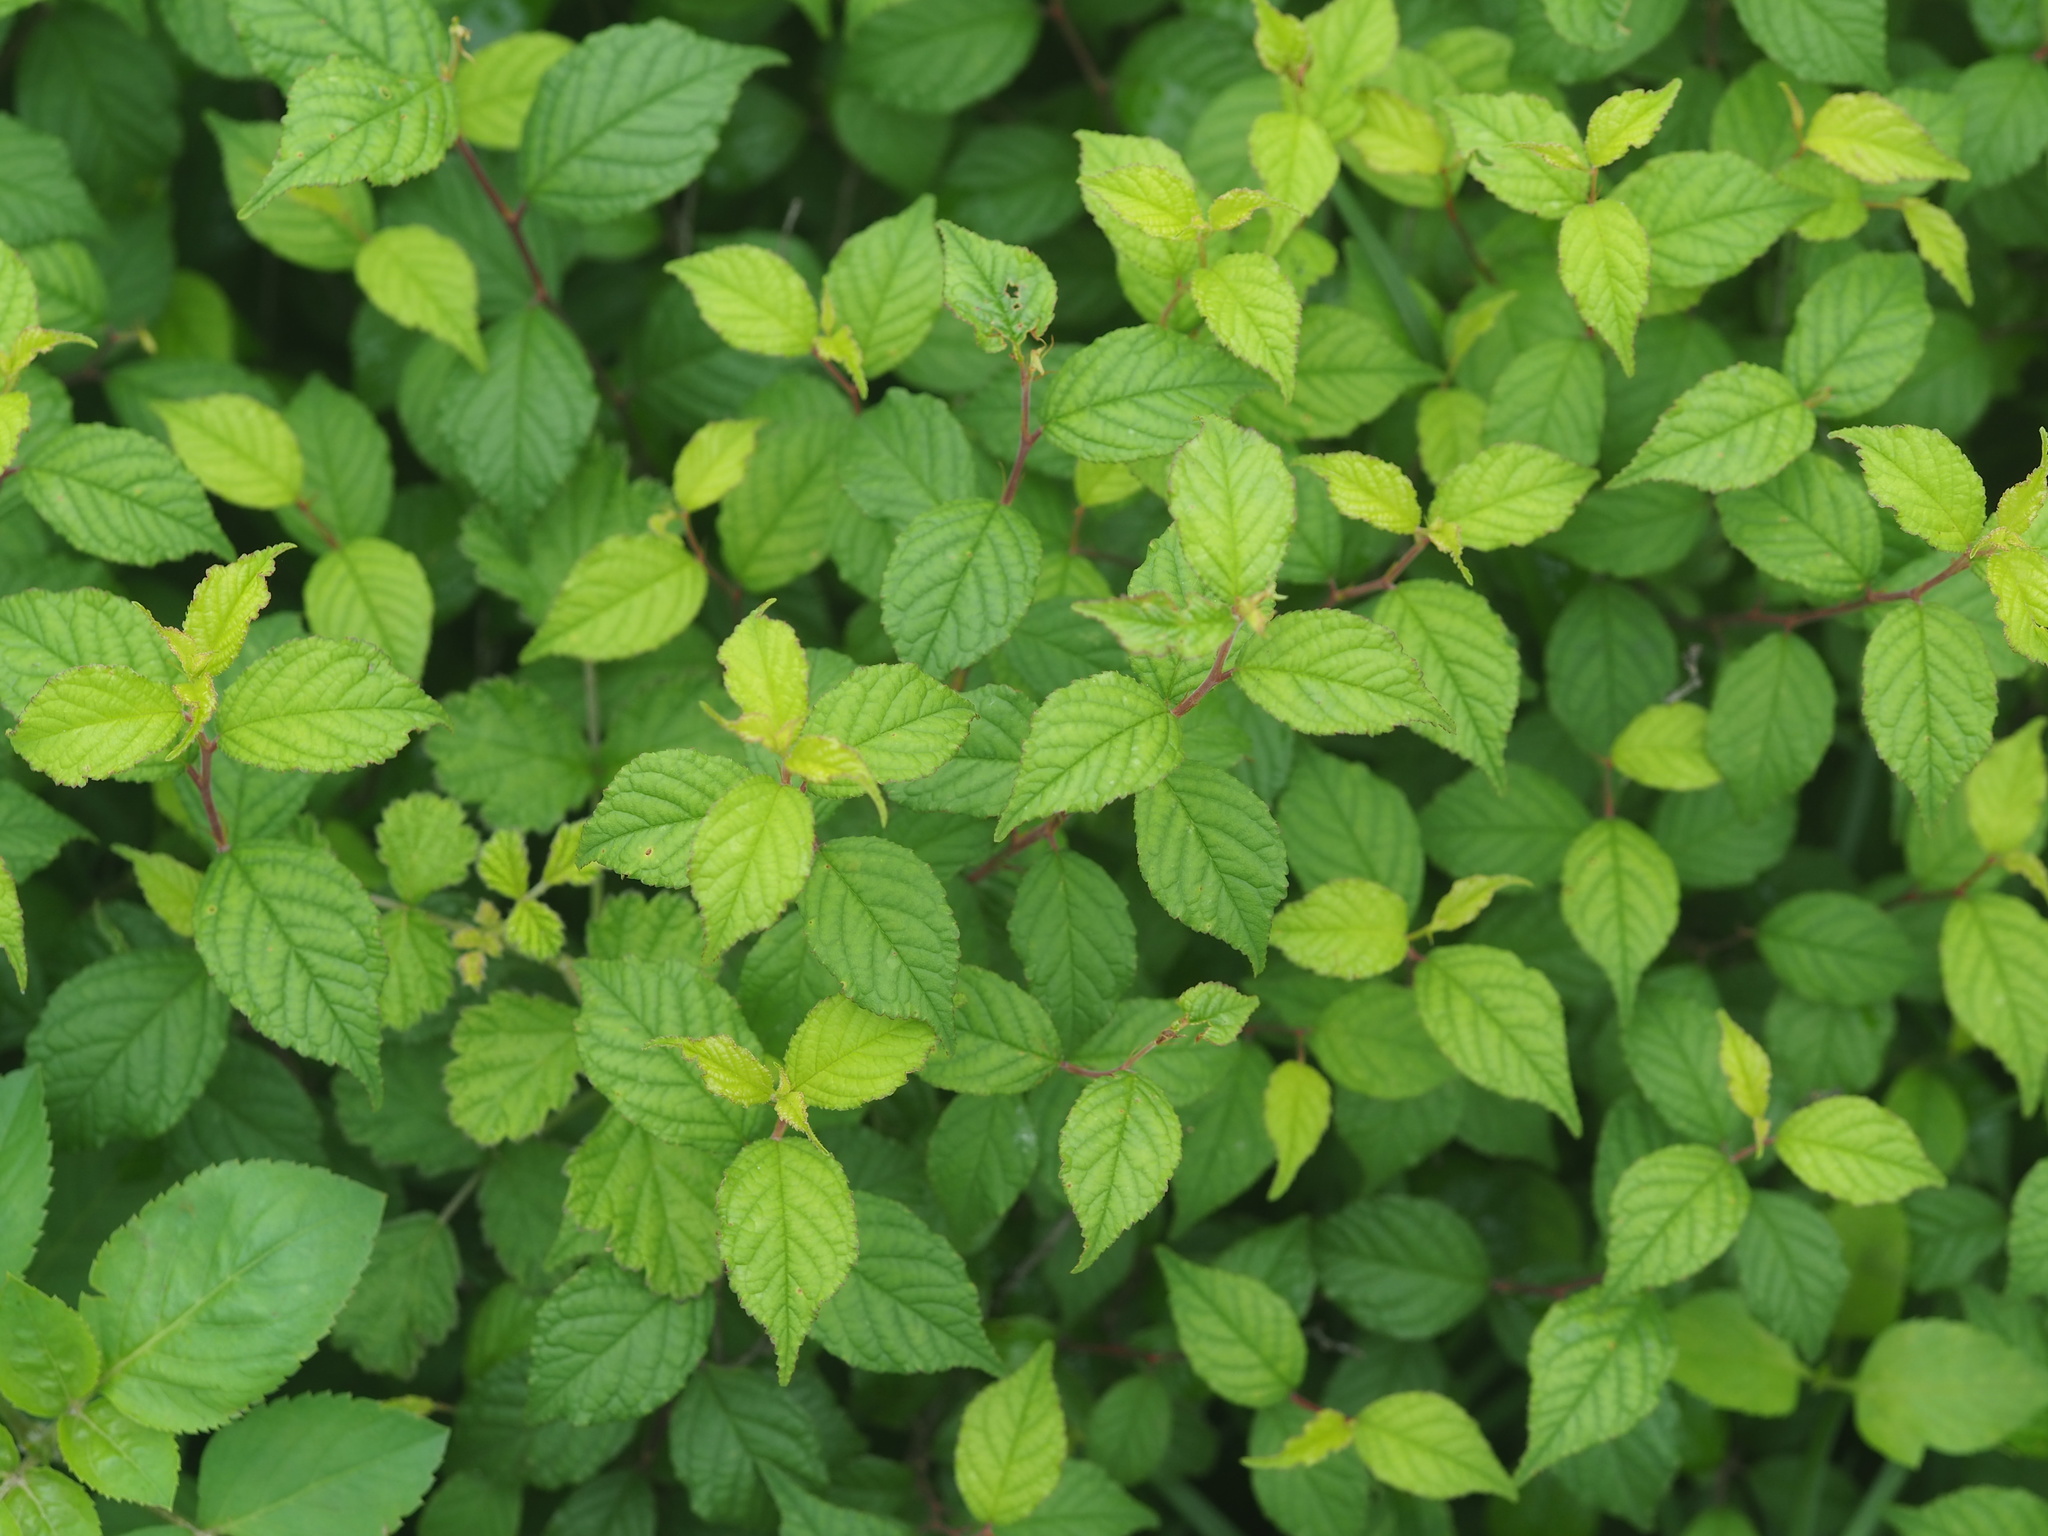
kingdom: Plantae
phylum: Tracheophyta
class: Magnoliopsida
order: Rosales
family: Rosaceae
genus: Prunus
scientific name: Prunus pogonostyla
